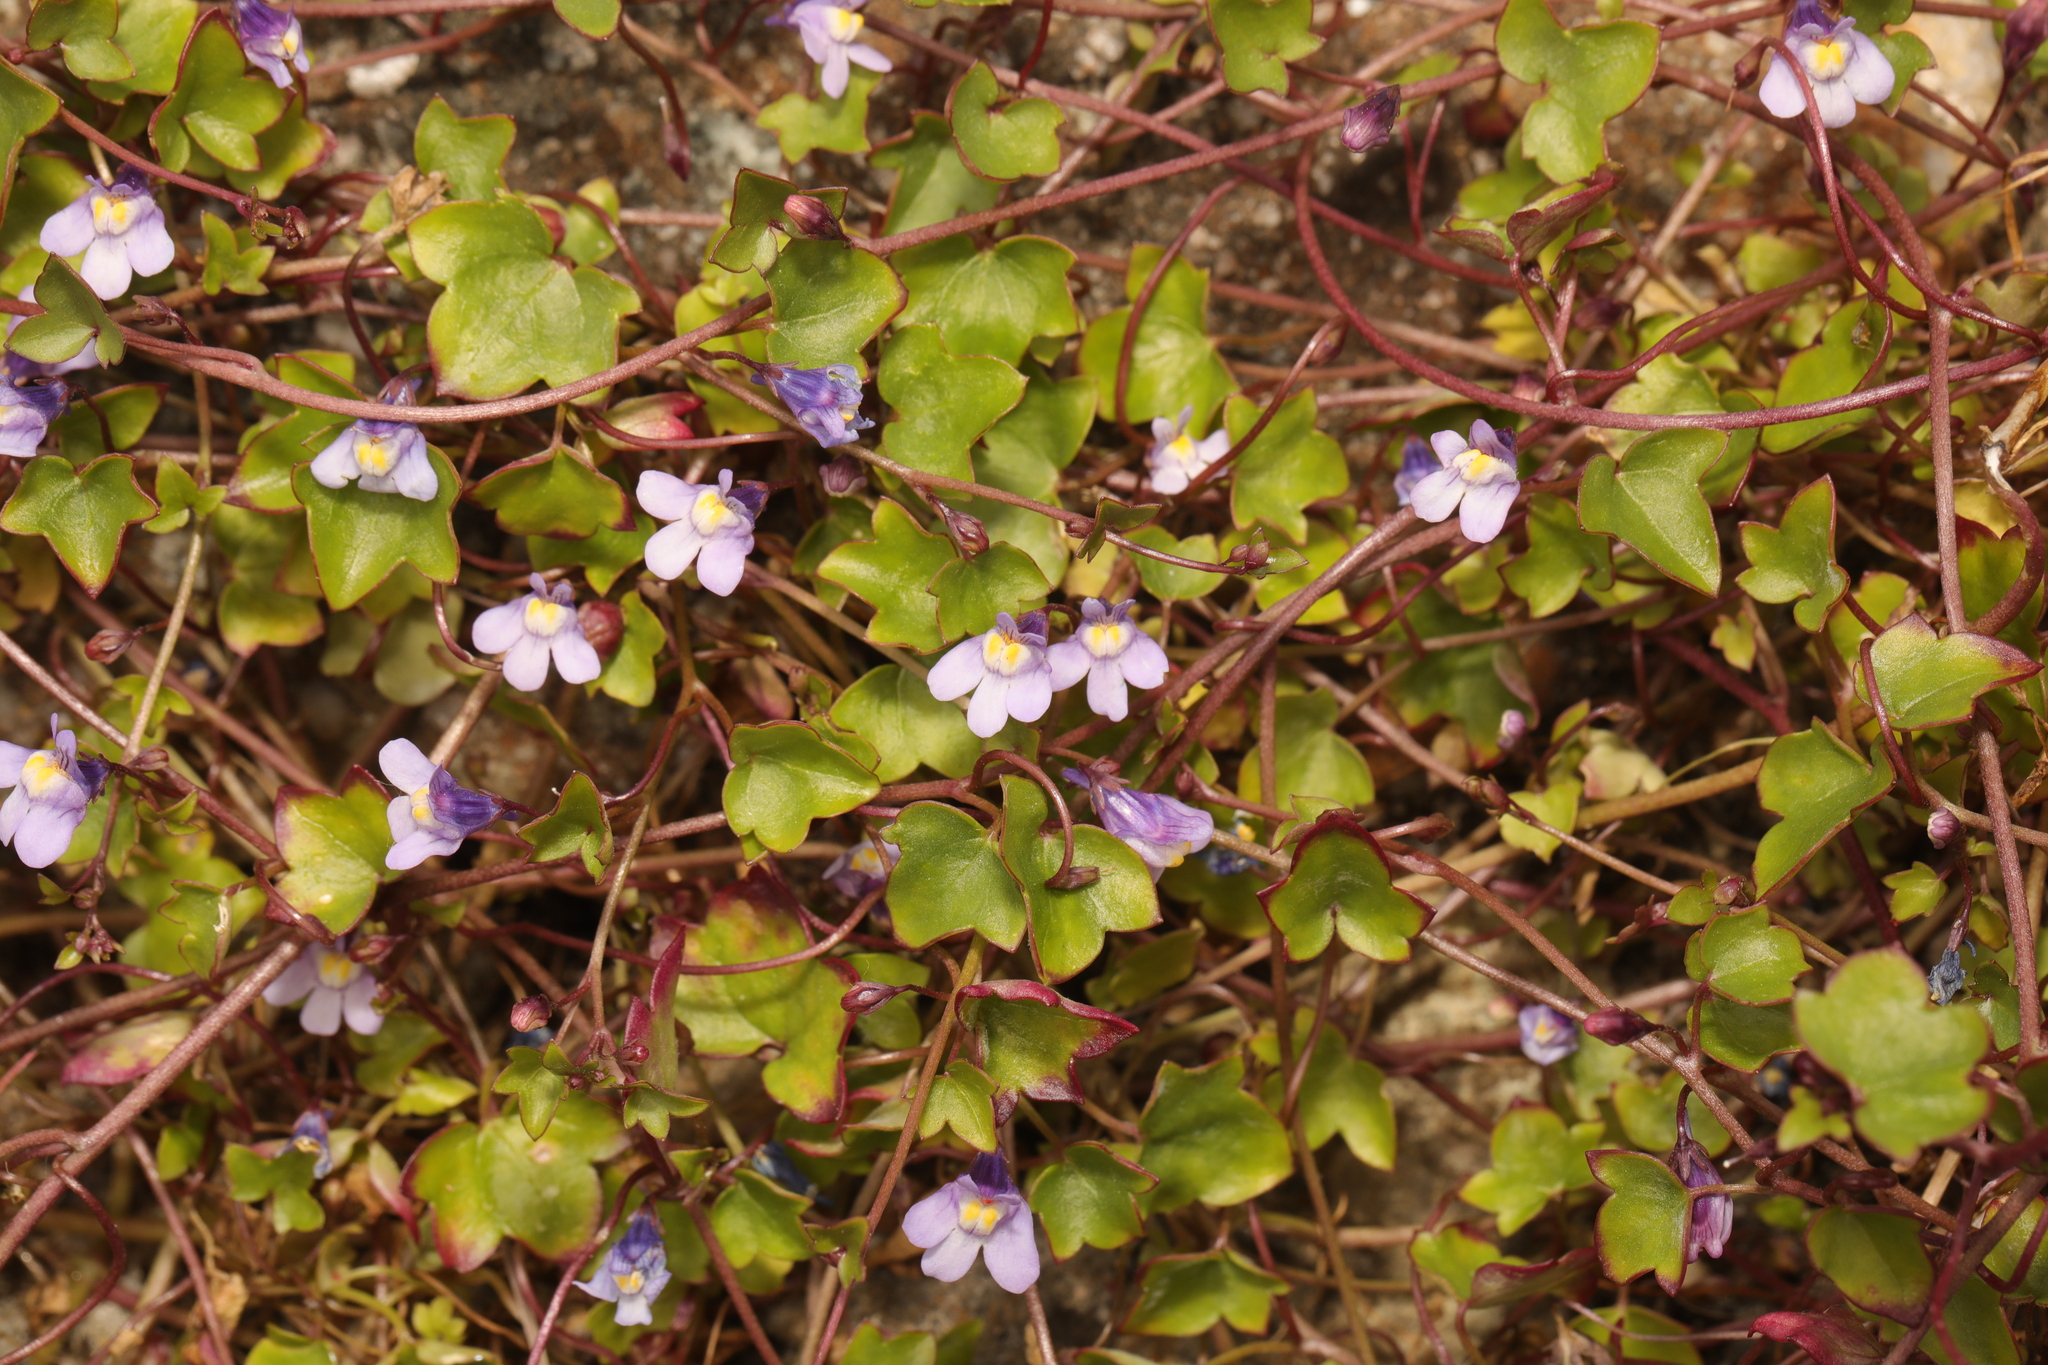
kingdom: Plantae
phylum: Tracheophyta
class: Magnoliopsida
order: Lamiales
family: Plantaginaceae
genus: Cymbalaria
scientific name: Cymbalaria muralis
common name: Ivy-leaved toadflax
